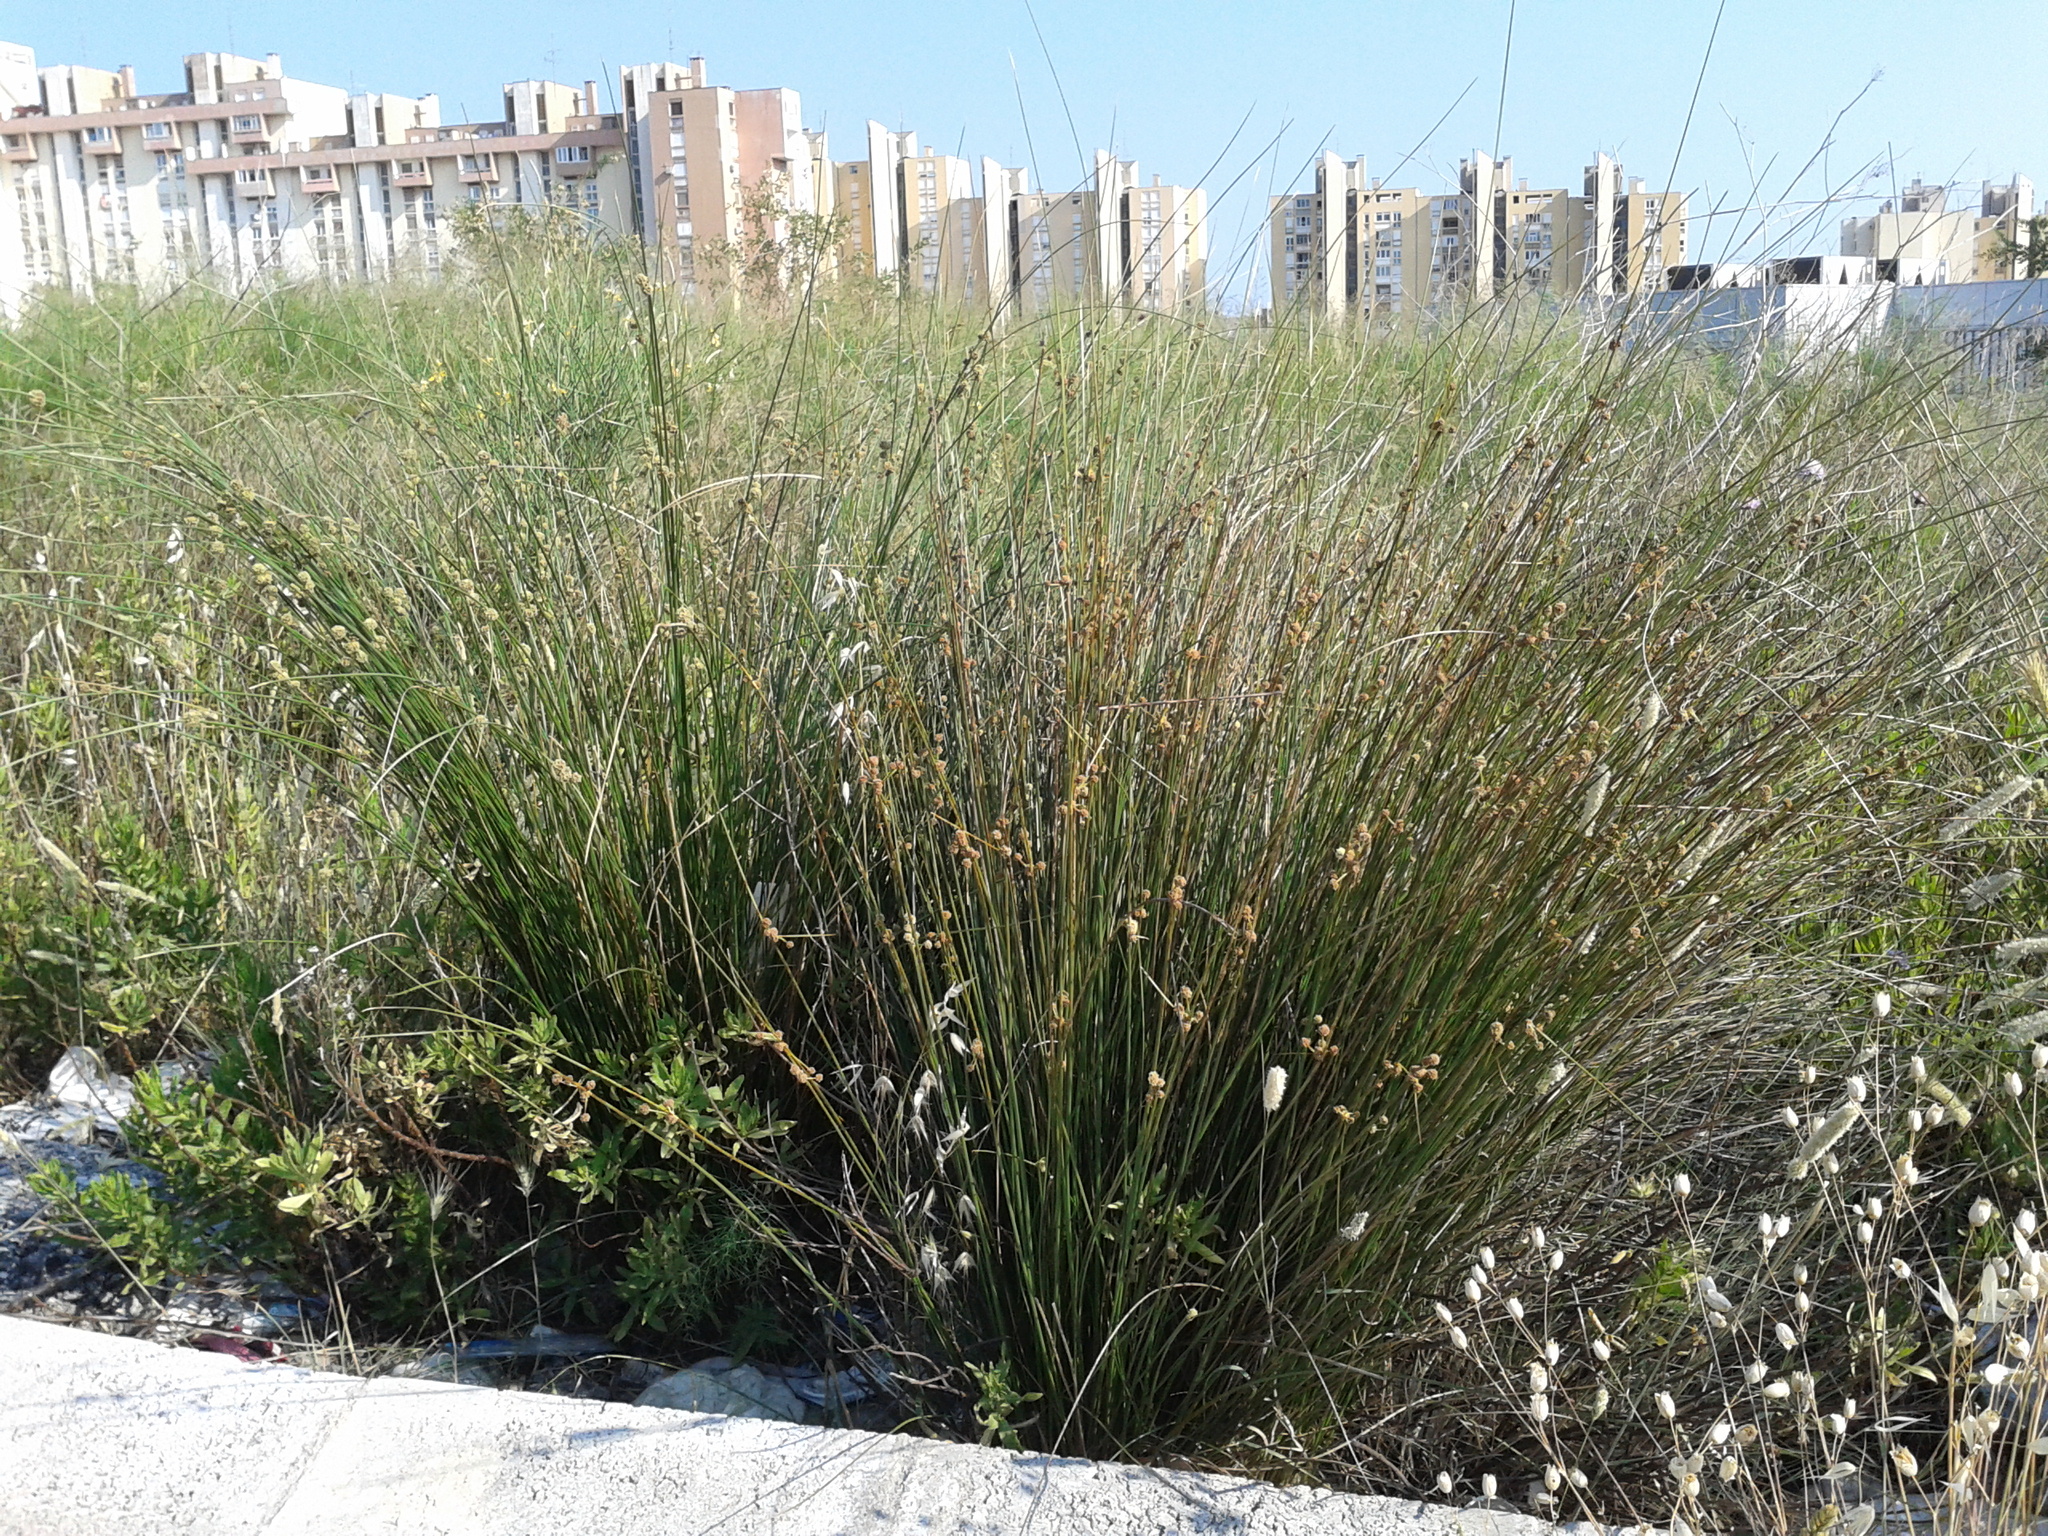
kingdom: Plantae
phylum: Tracheophyta
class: Liliopsida
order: Poales
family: Cyperaceae
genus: Scirpoides
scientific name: Scirpoides holoschoenus
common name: Round-headed club-rush
